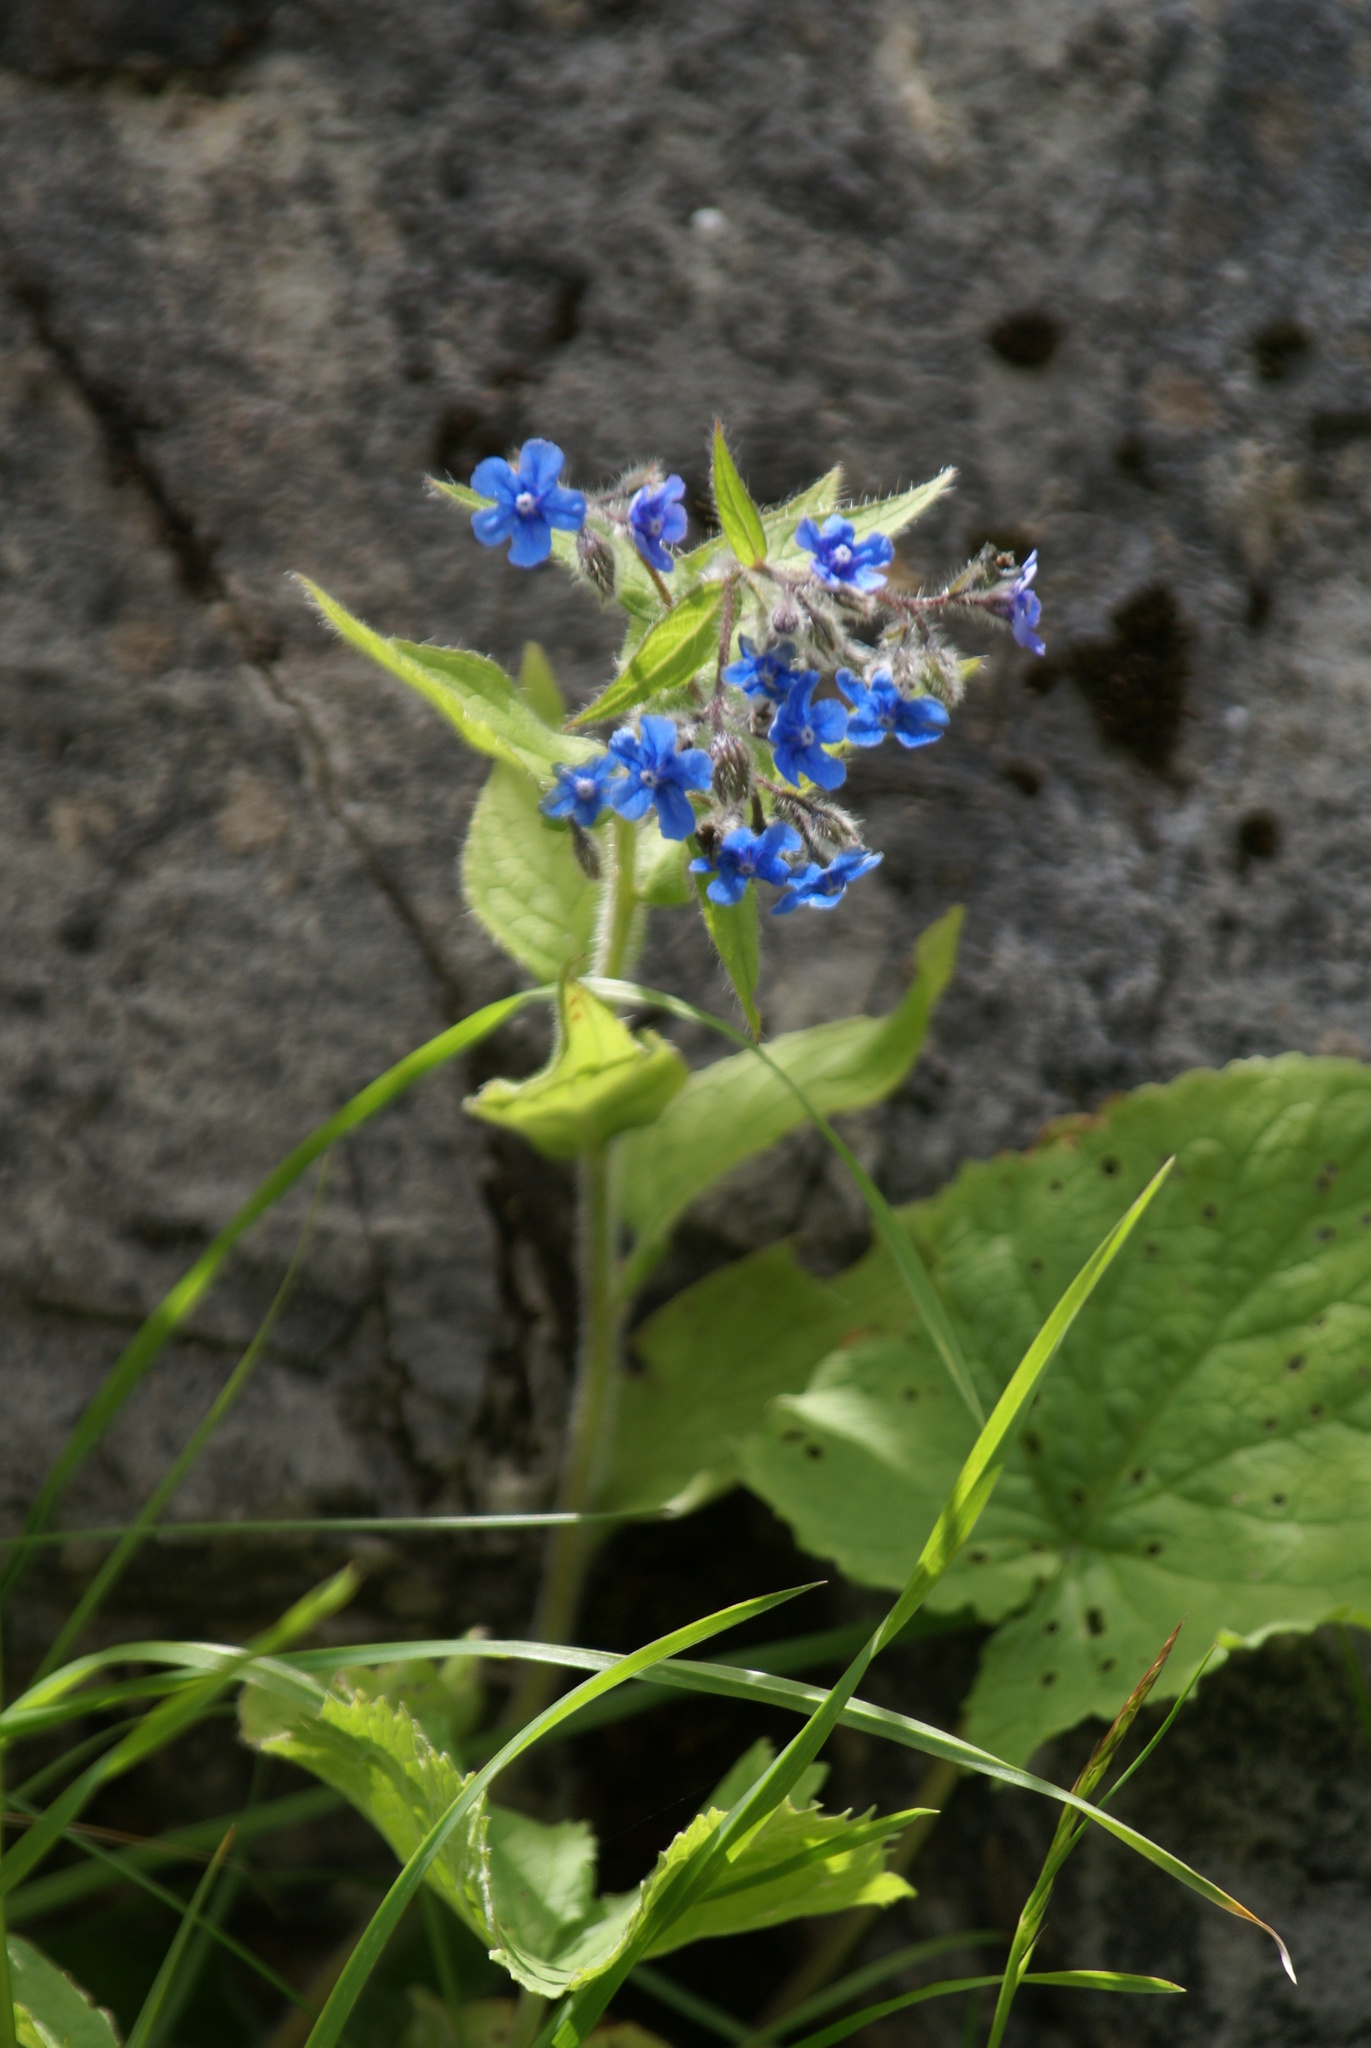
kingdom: Plantae
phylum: Tracheophyta
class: Magnoliopsida
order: Boraginales
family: Boraginaceae
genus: Pentaglottis
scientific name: Pentaglottis sempervirens
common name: Green alkanet
